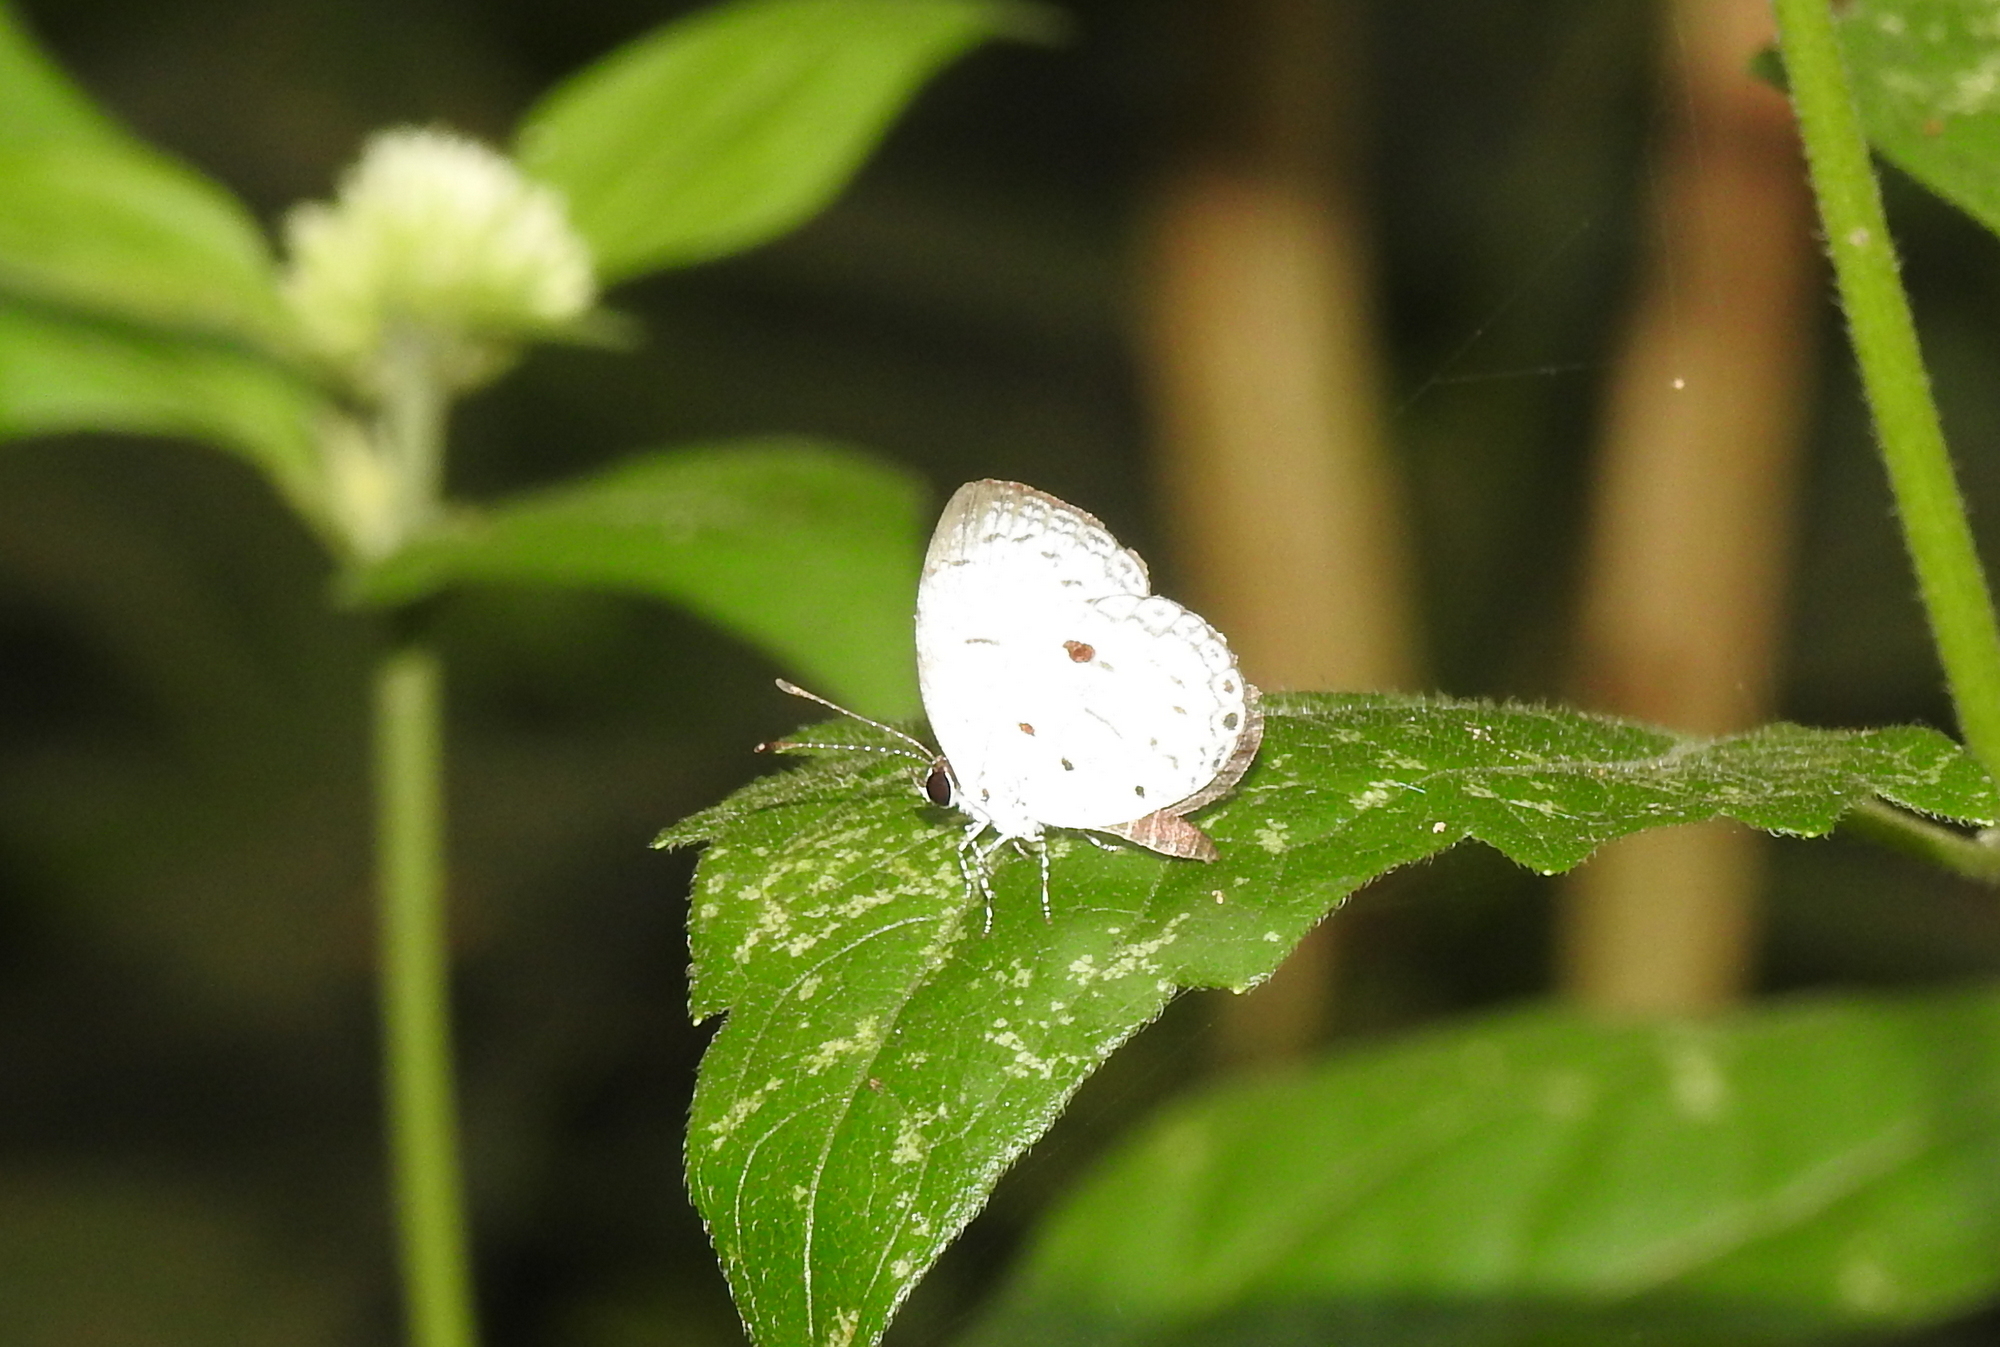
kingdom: Animalia
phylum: Arthropoda
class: Insecta
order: Lepidoptera
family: Lycaenidae
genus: Neopithecops
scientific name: Neopithecops zalmora
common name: Quaker
